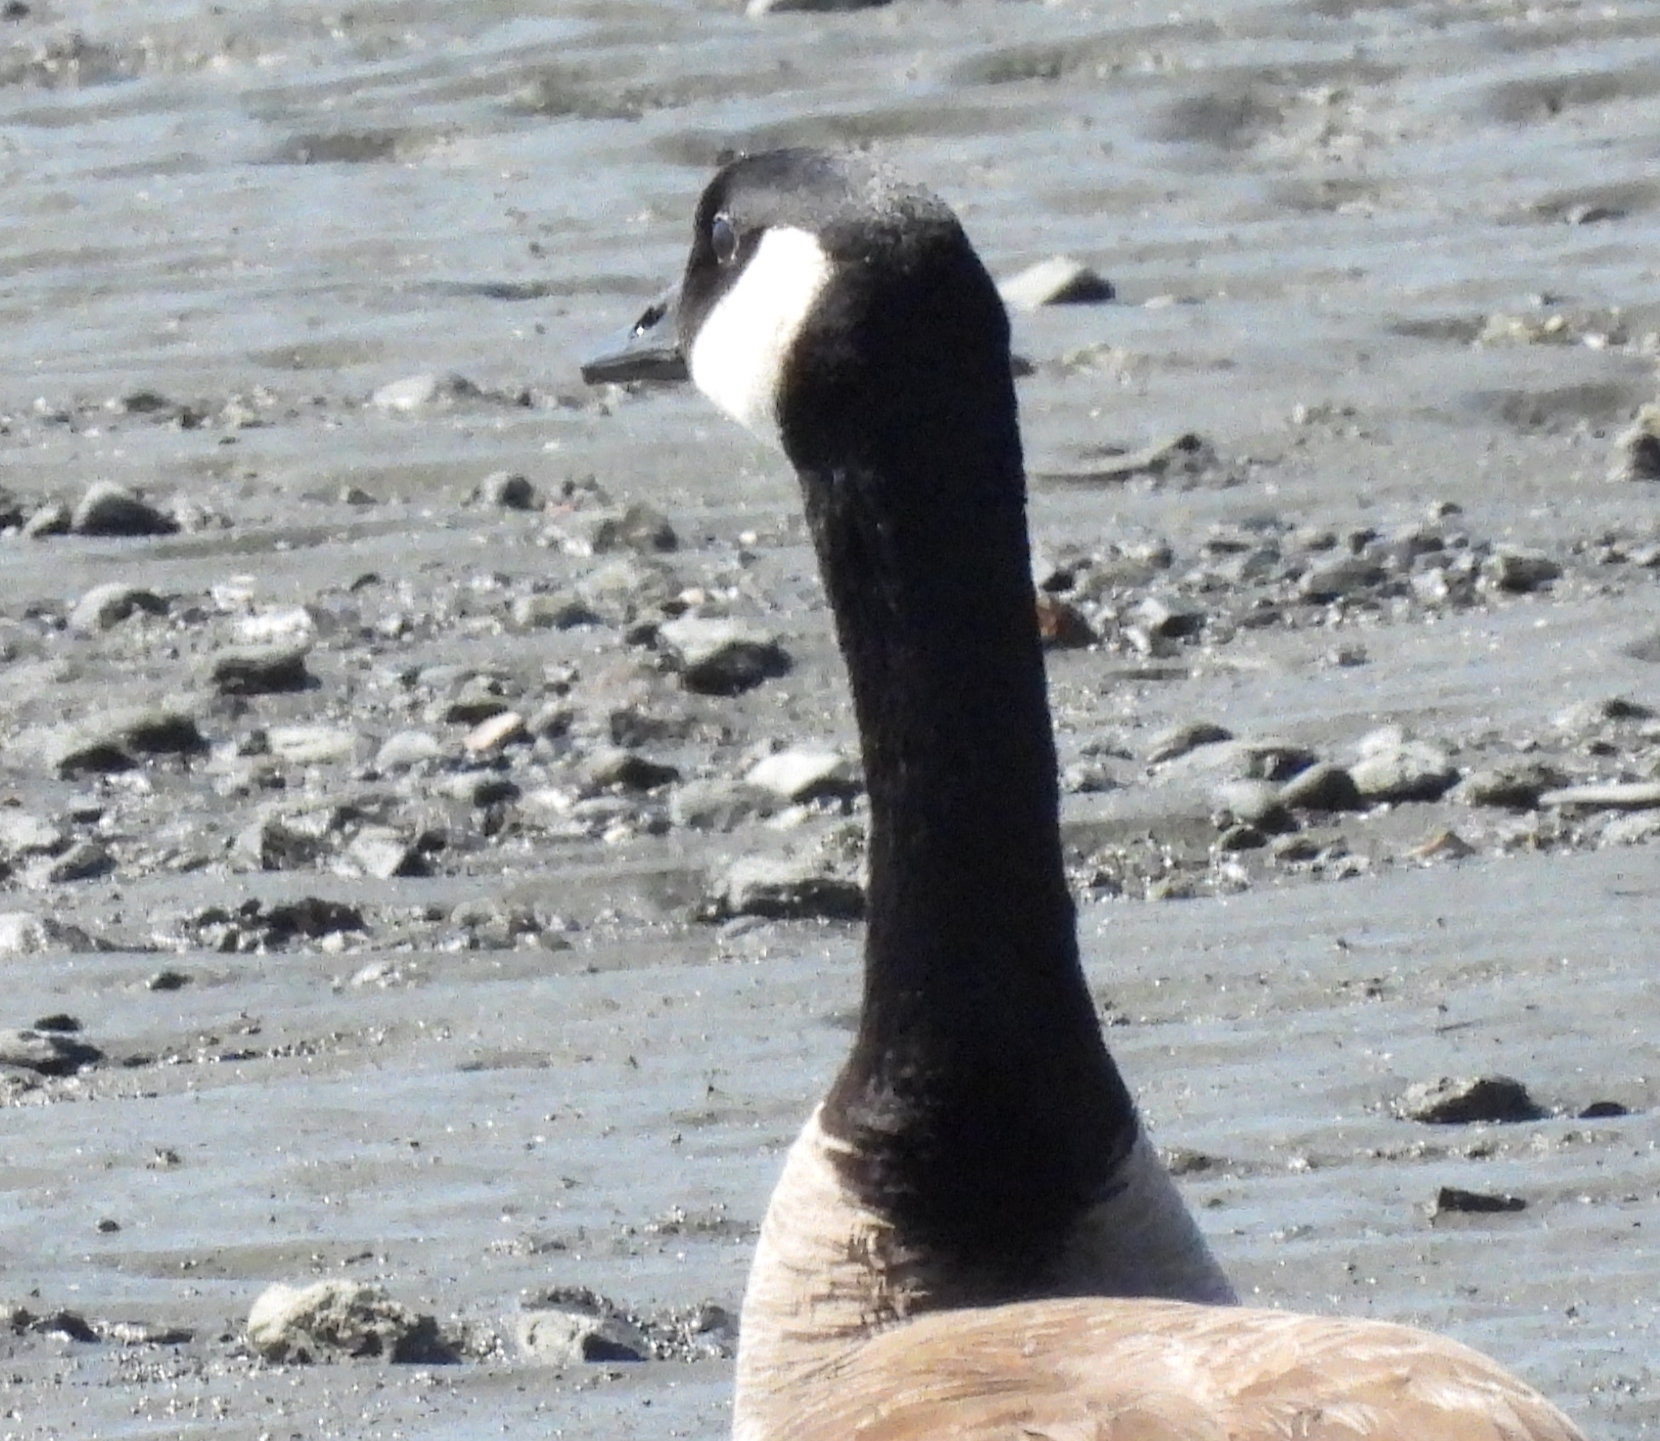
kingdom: Animalia
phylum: Chordata
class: Aves
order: Anseriformes
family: Anatidae
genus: Branta
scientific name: Branta canadensis
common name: Canada goose
